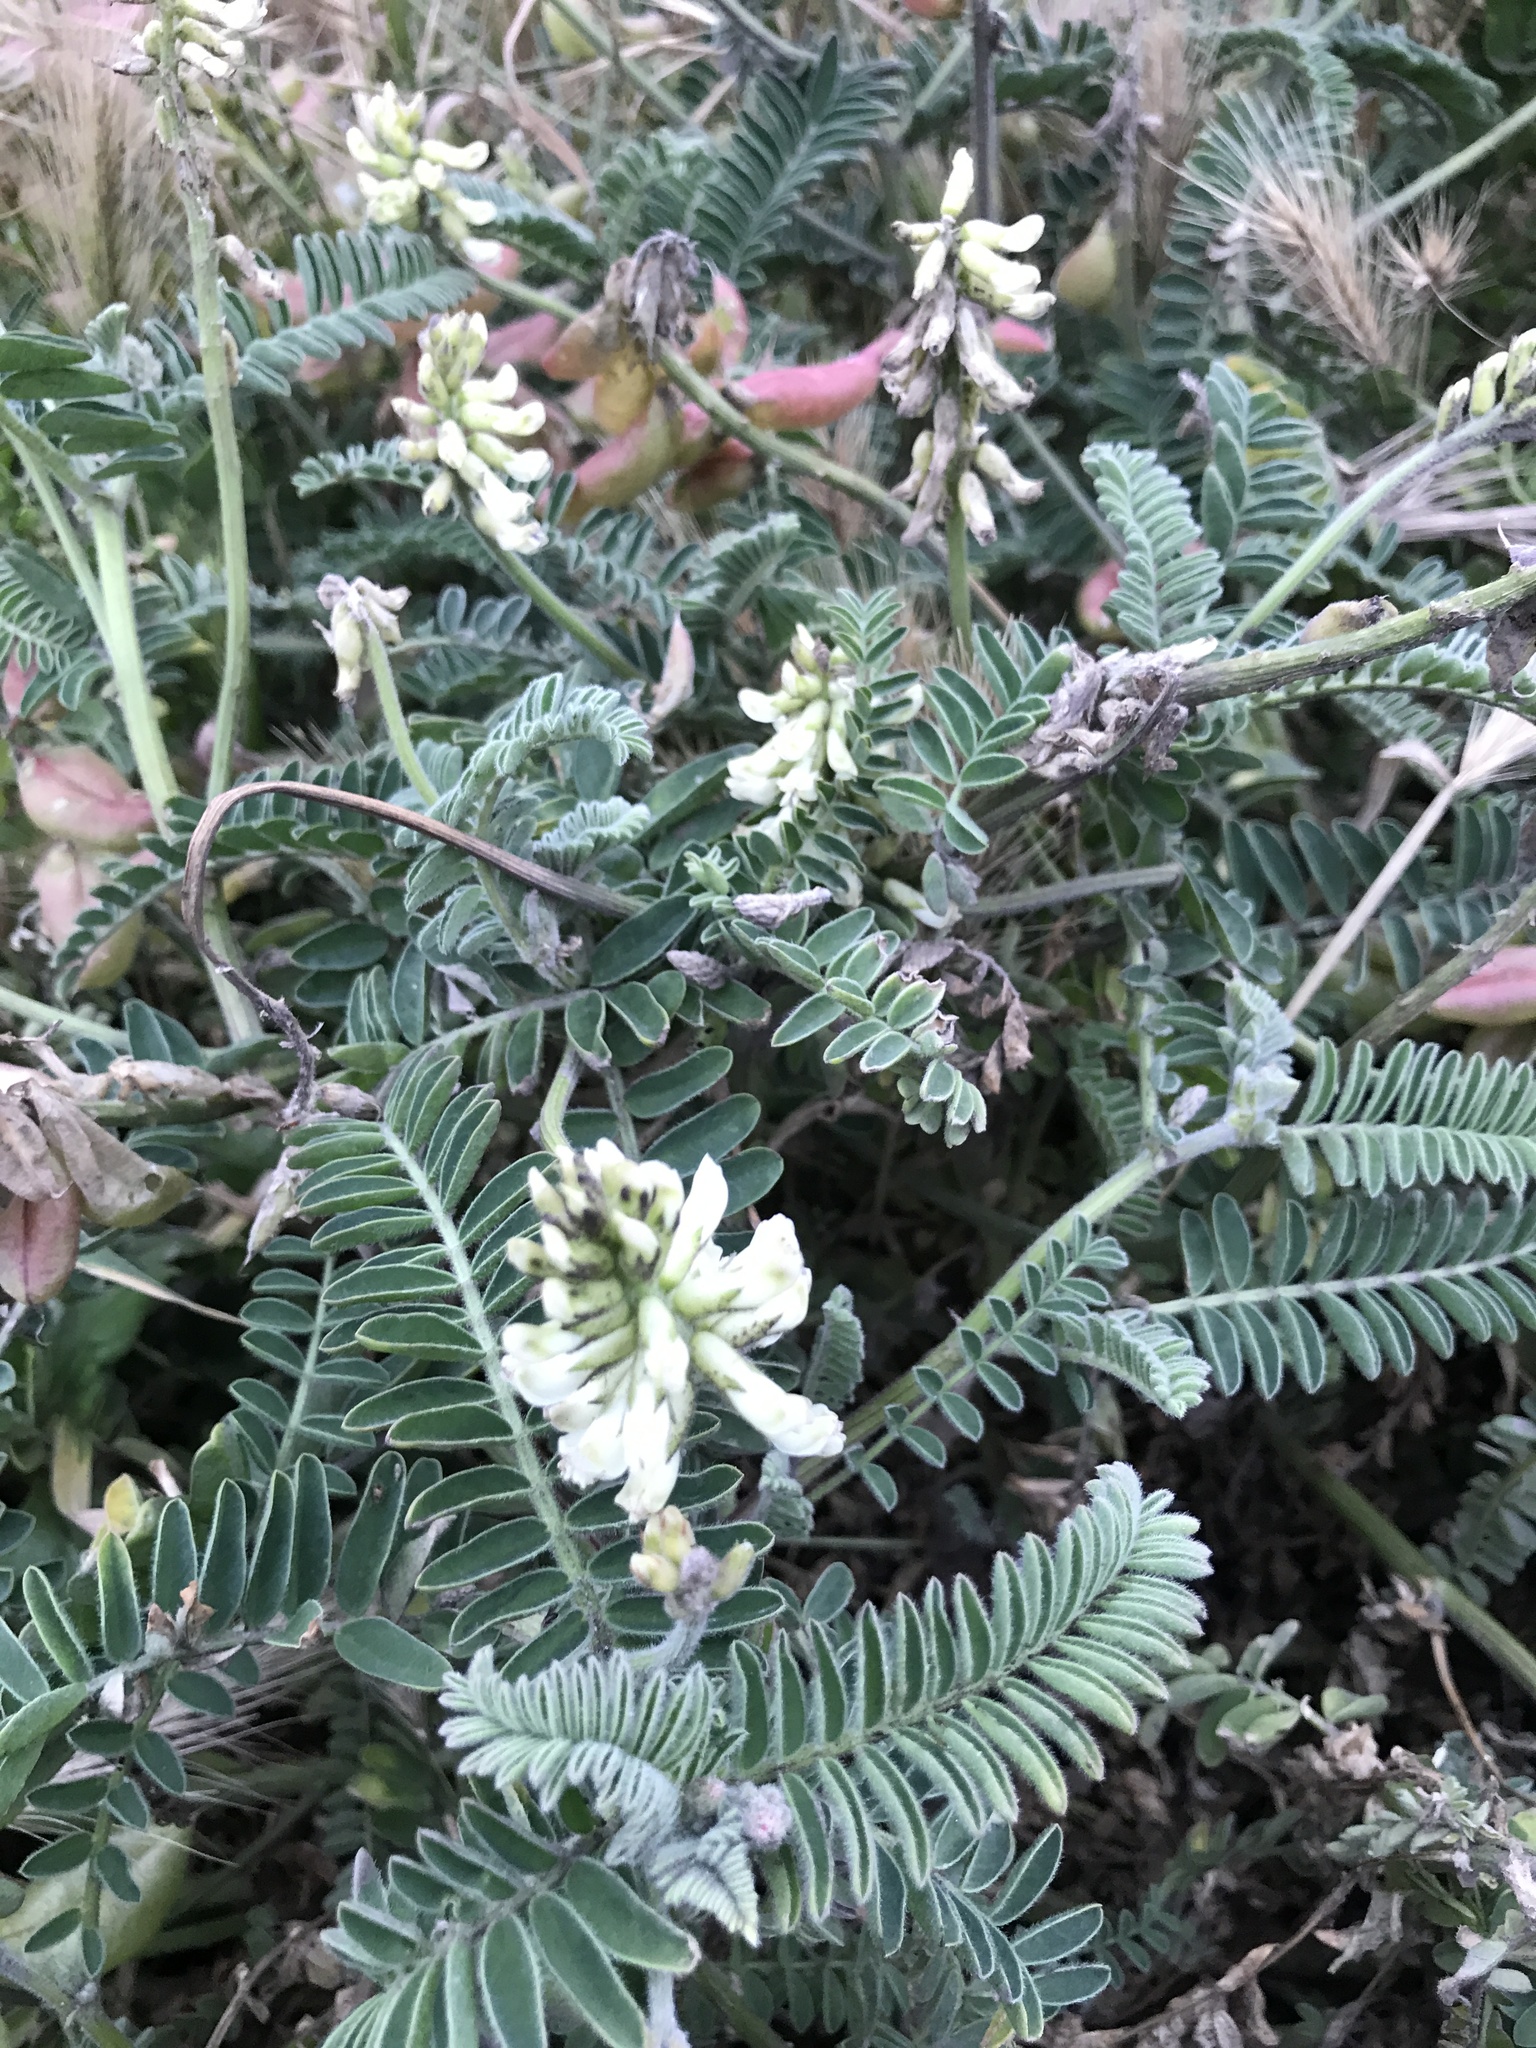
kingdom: Plantae
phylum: Tracheophyta
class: Magnoliopsida
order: Fabales
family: Fabaceae
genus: Astragalus
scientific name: Astragalus nuttallii
